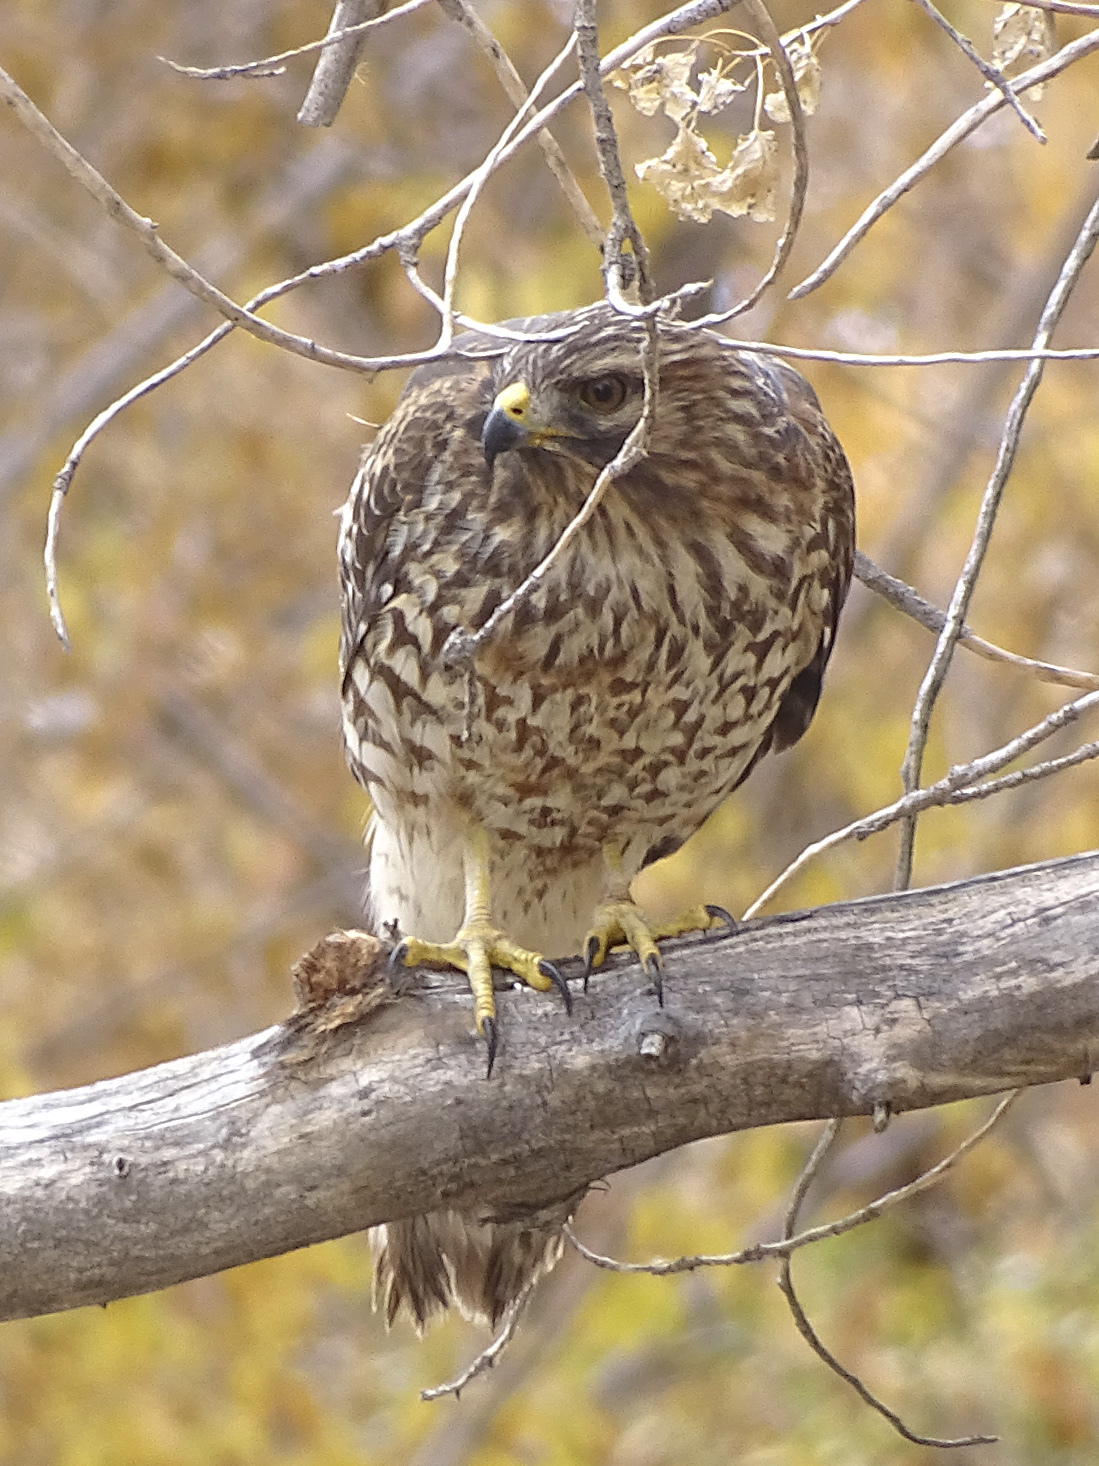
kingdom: Animalia
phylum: Chordata
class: Aves
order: Accipitriformes
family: Accipitridae
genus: Buteo
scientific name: Buteo lineatus
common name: Red-shouldered hawk
